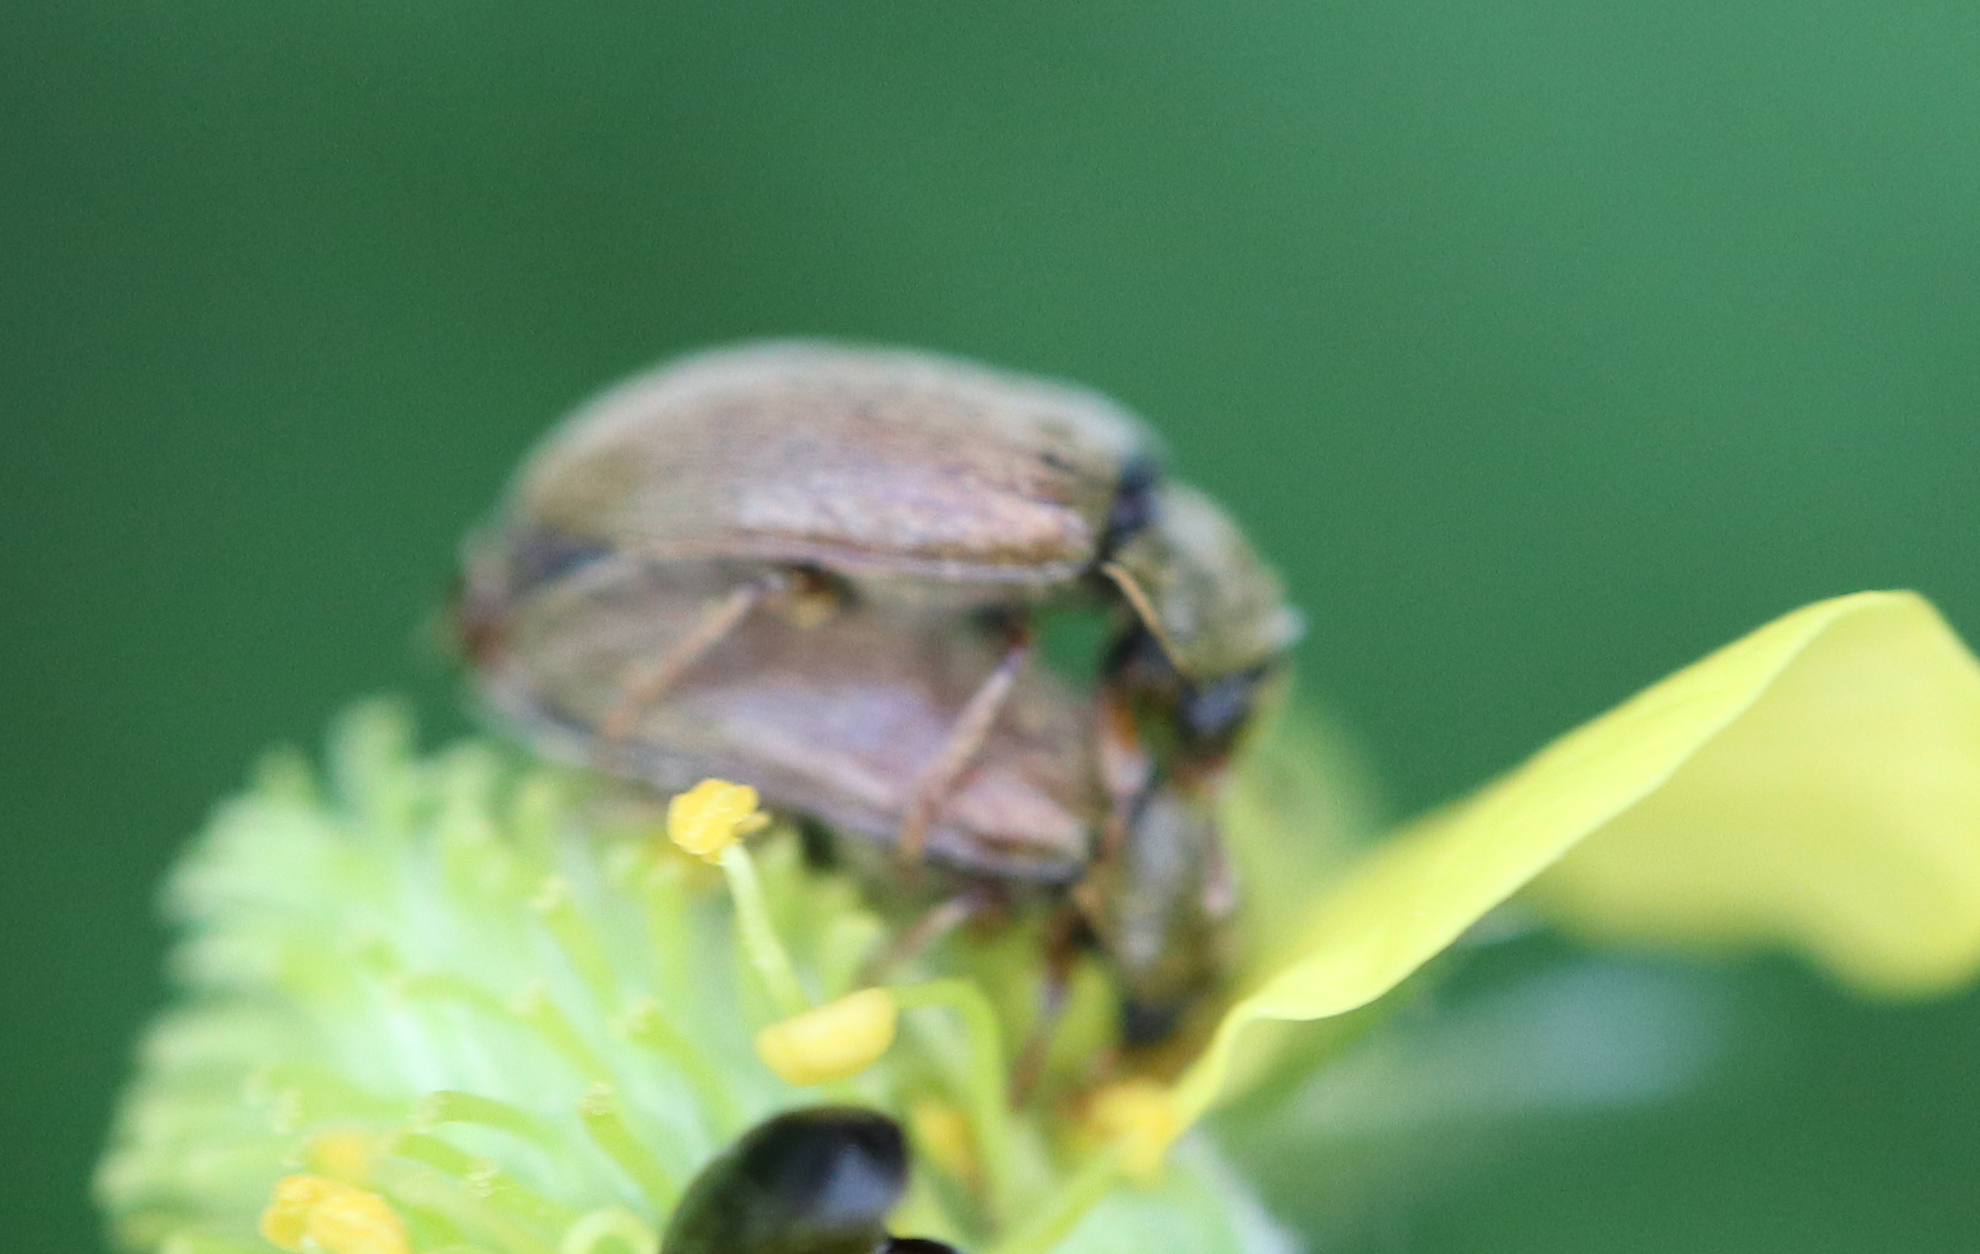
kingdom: Animalia
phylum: Arthropoda
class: Insecta
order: Coleoptera
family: Byturidae
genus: Byturus
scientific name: Byturus tomentosus
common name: Beetle
